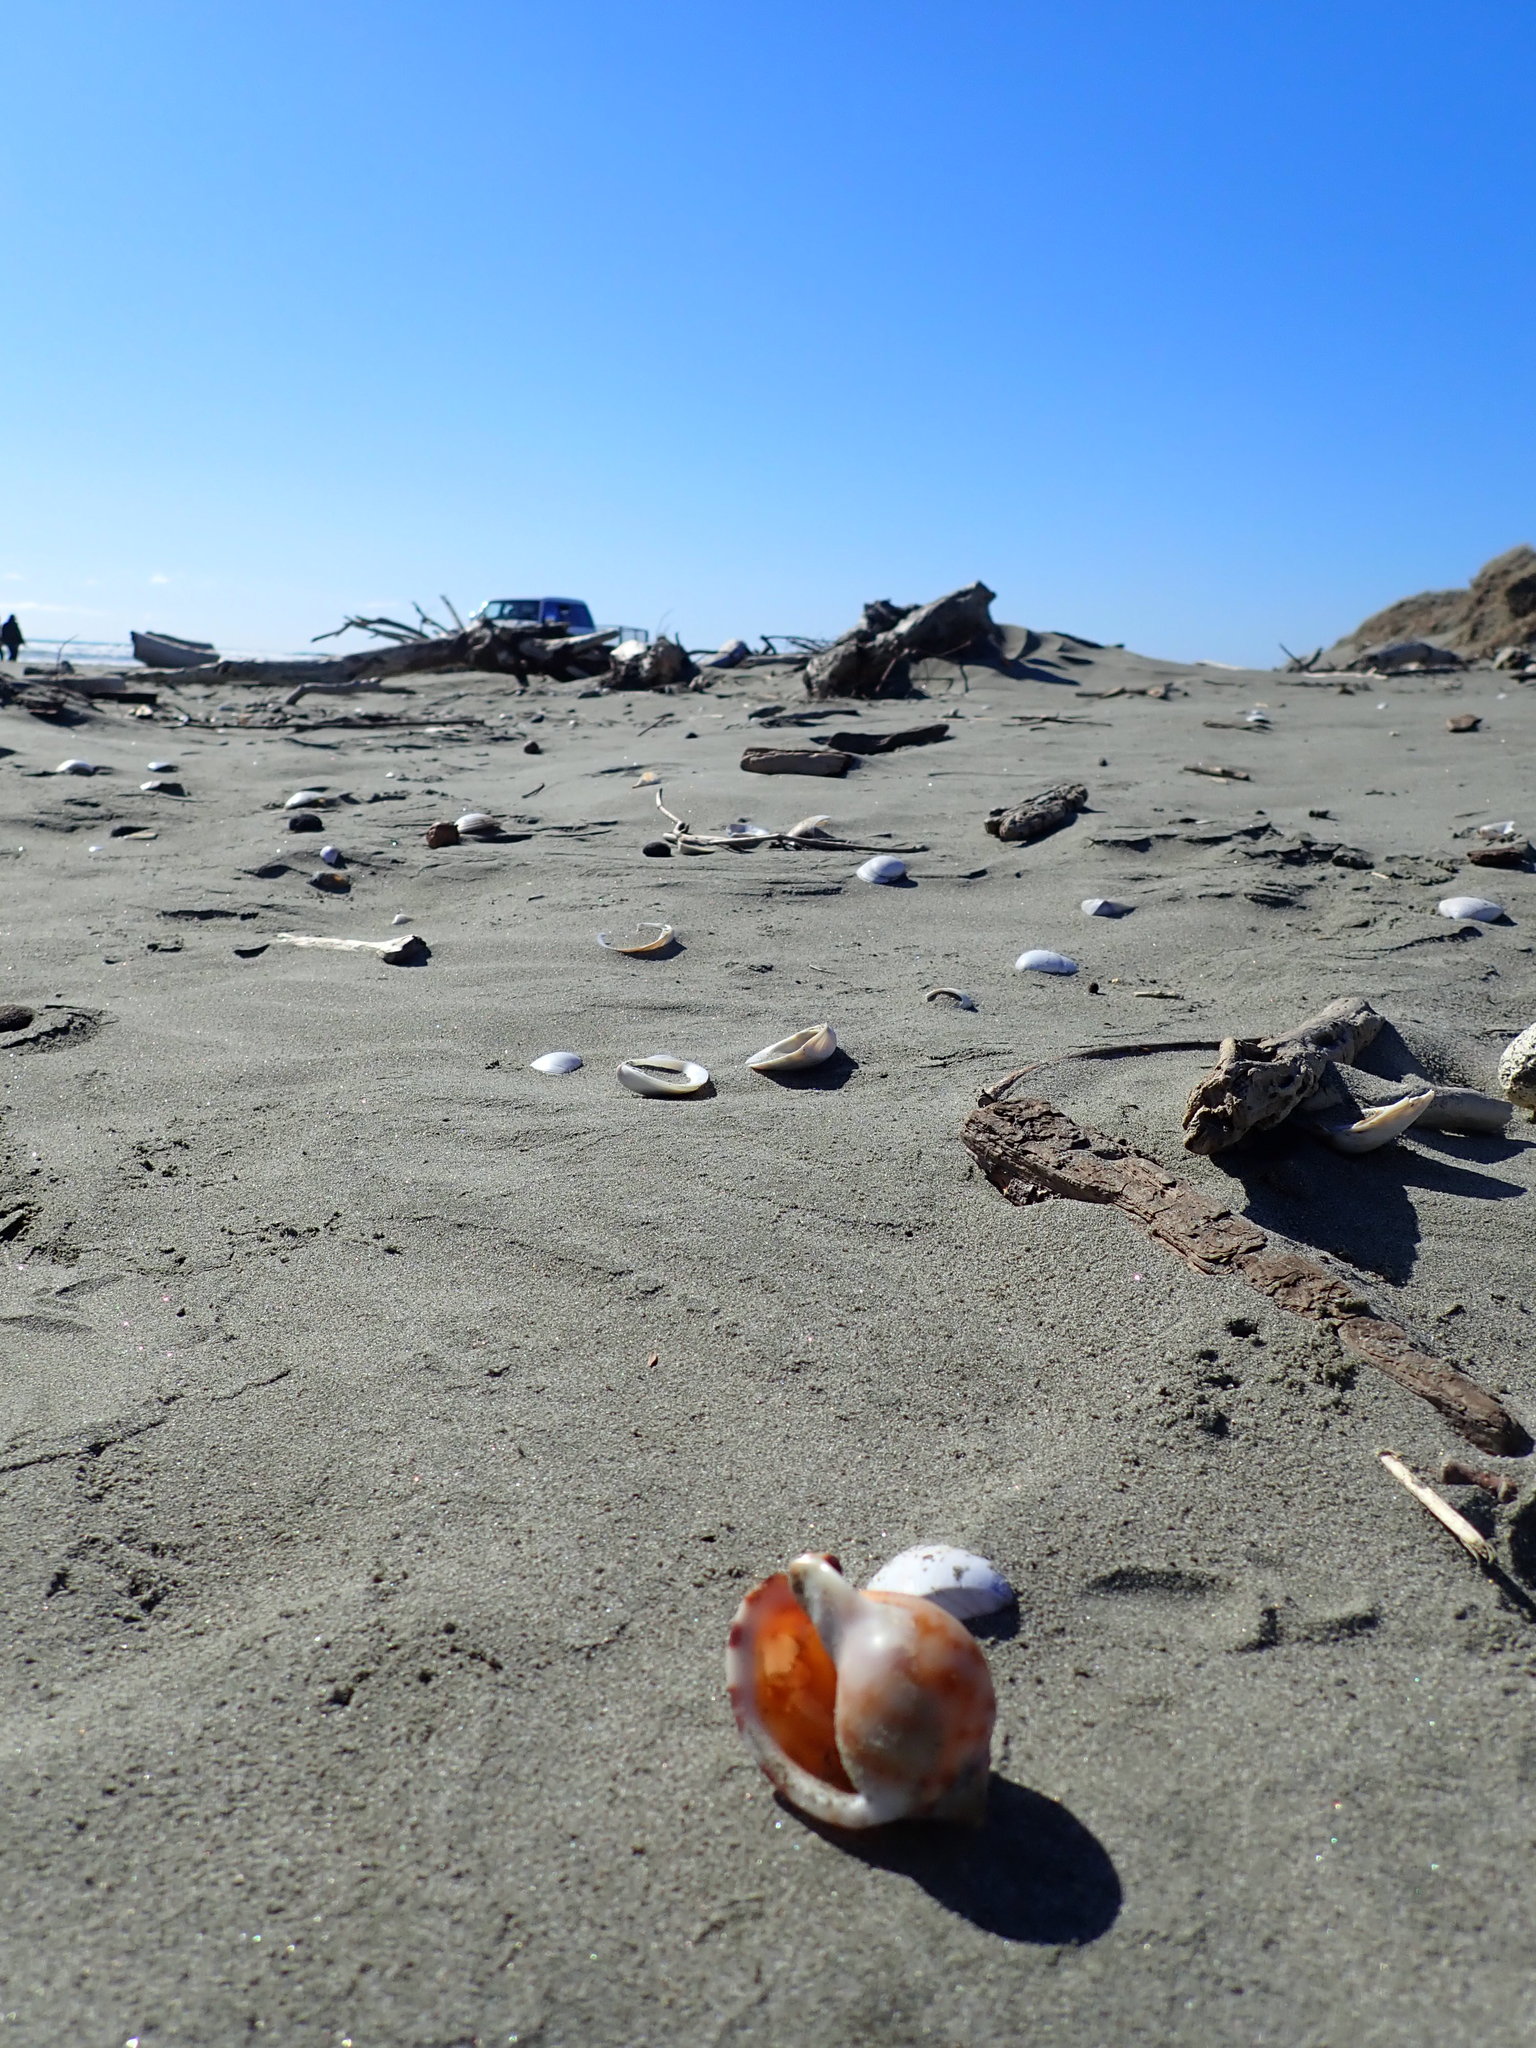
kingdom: Animalia
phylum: Mollusca
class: Gastropoda
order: Littorinimorpha
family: Cassidae
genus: Semicassis
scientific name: Semicassis pyrum
